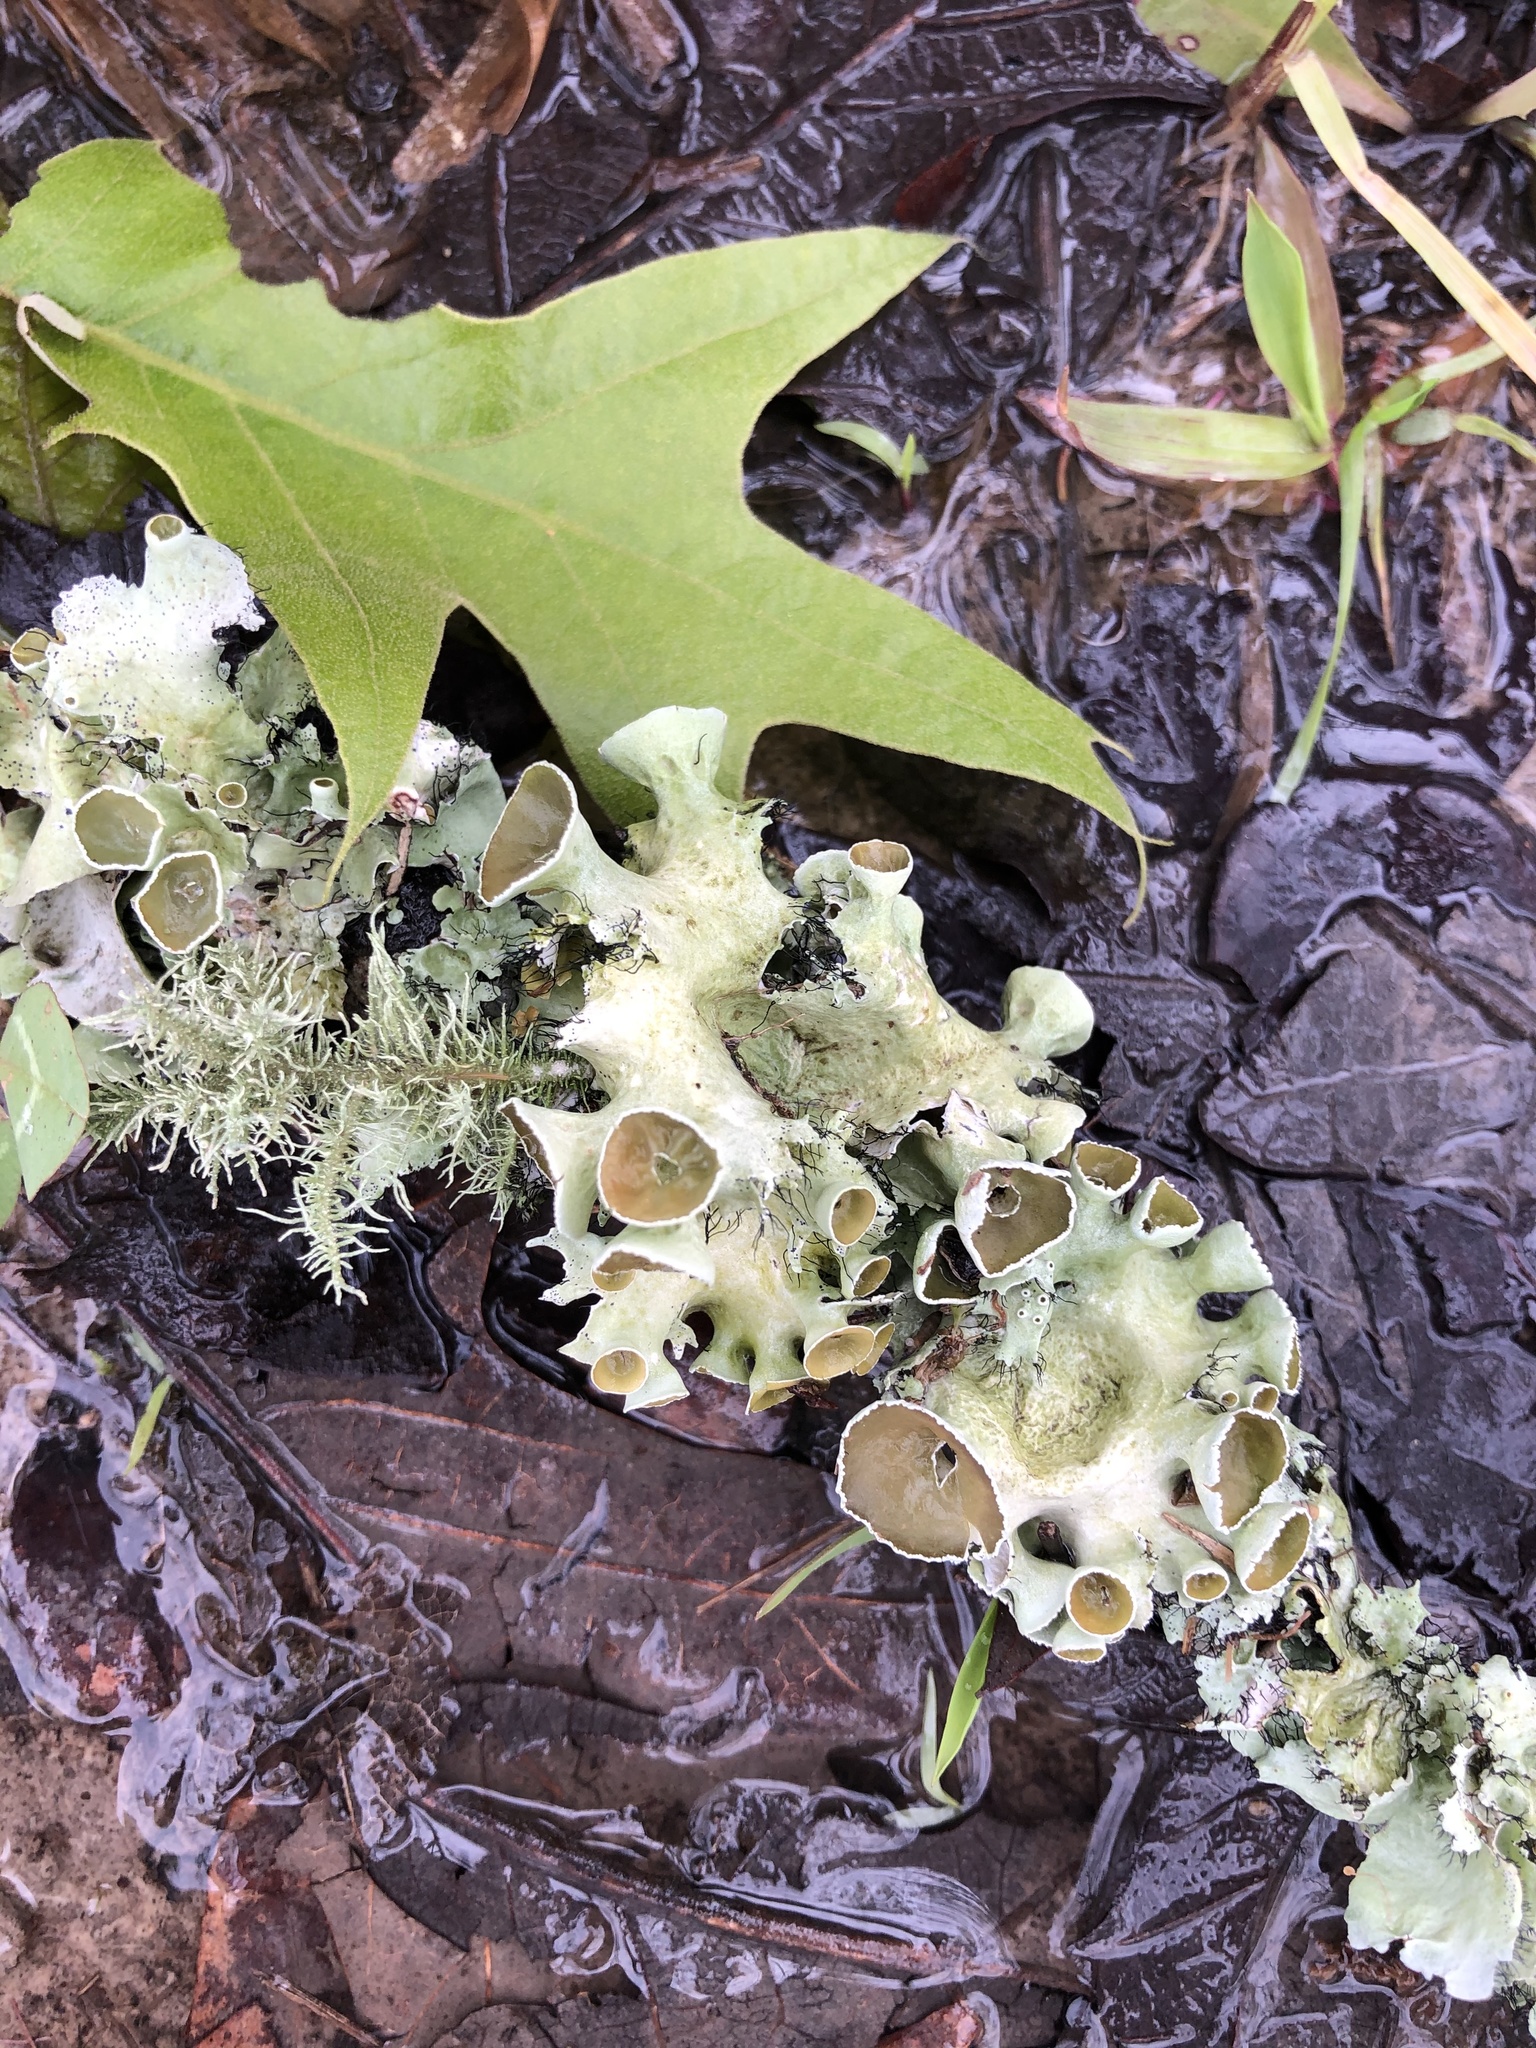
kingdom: Fungi
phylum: Ascomycota
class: Lecanoromycetes
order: Lecanorales
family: Parmeliaceae
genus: Parmotrema
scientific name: Parmotrema perforatum
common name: Perforated ruffle lichen
